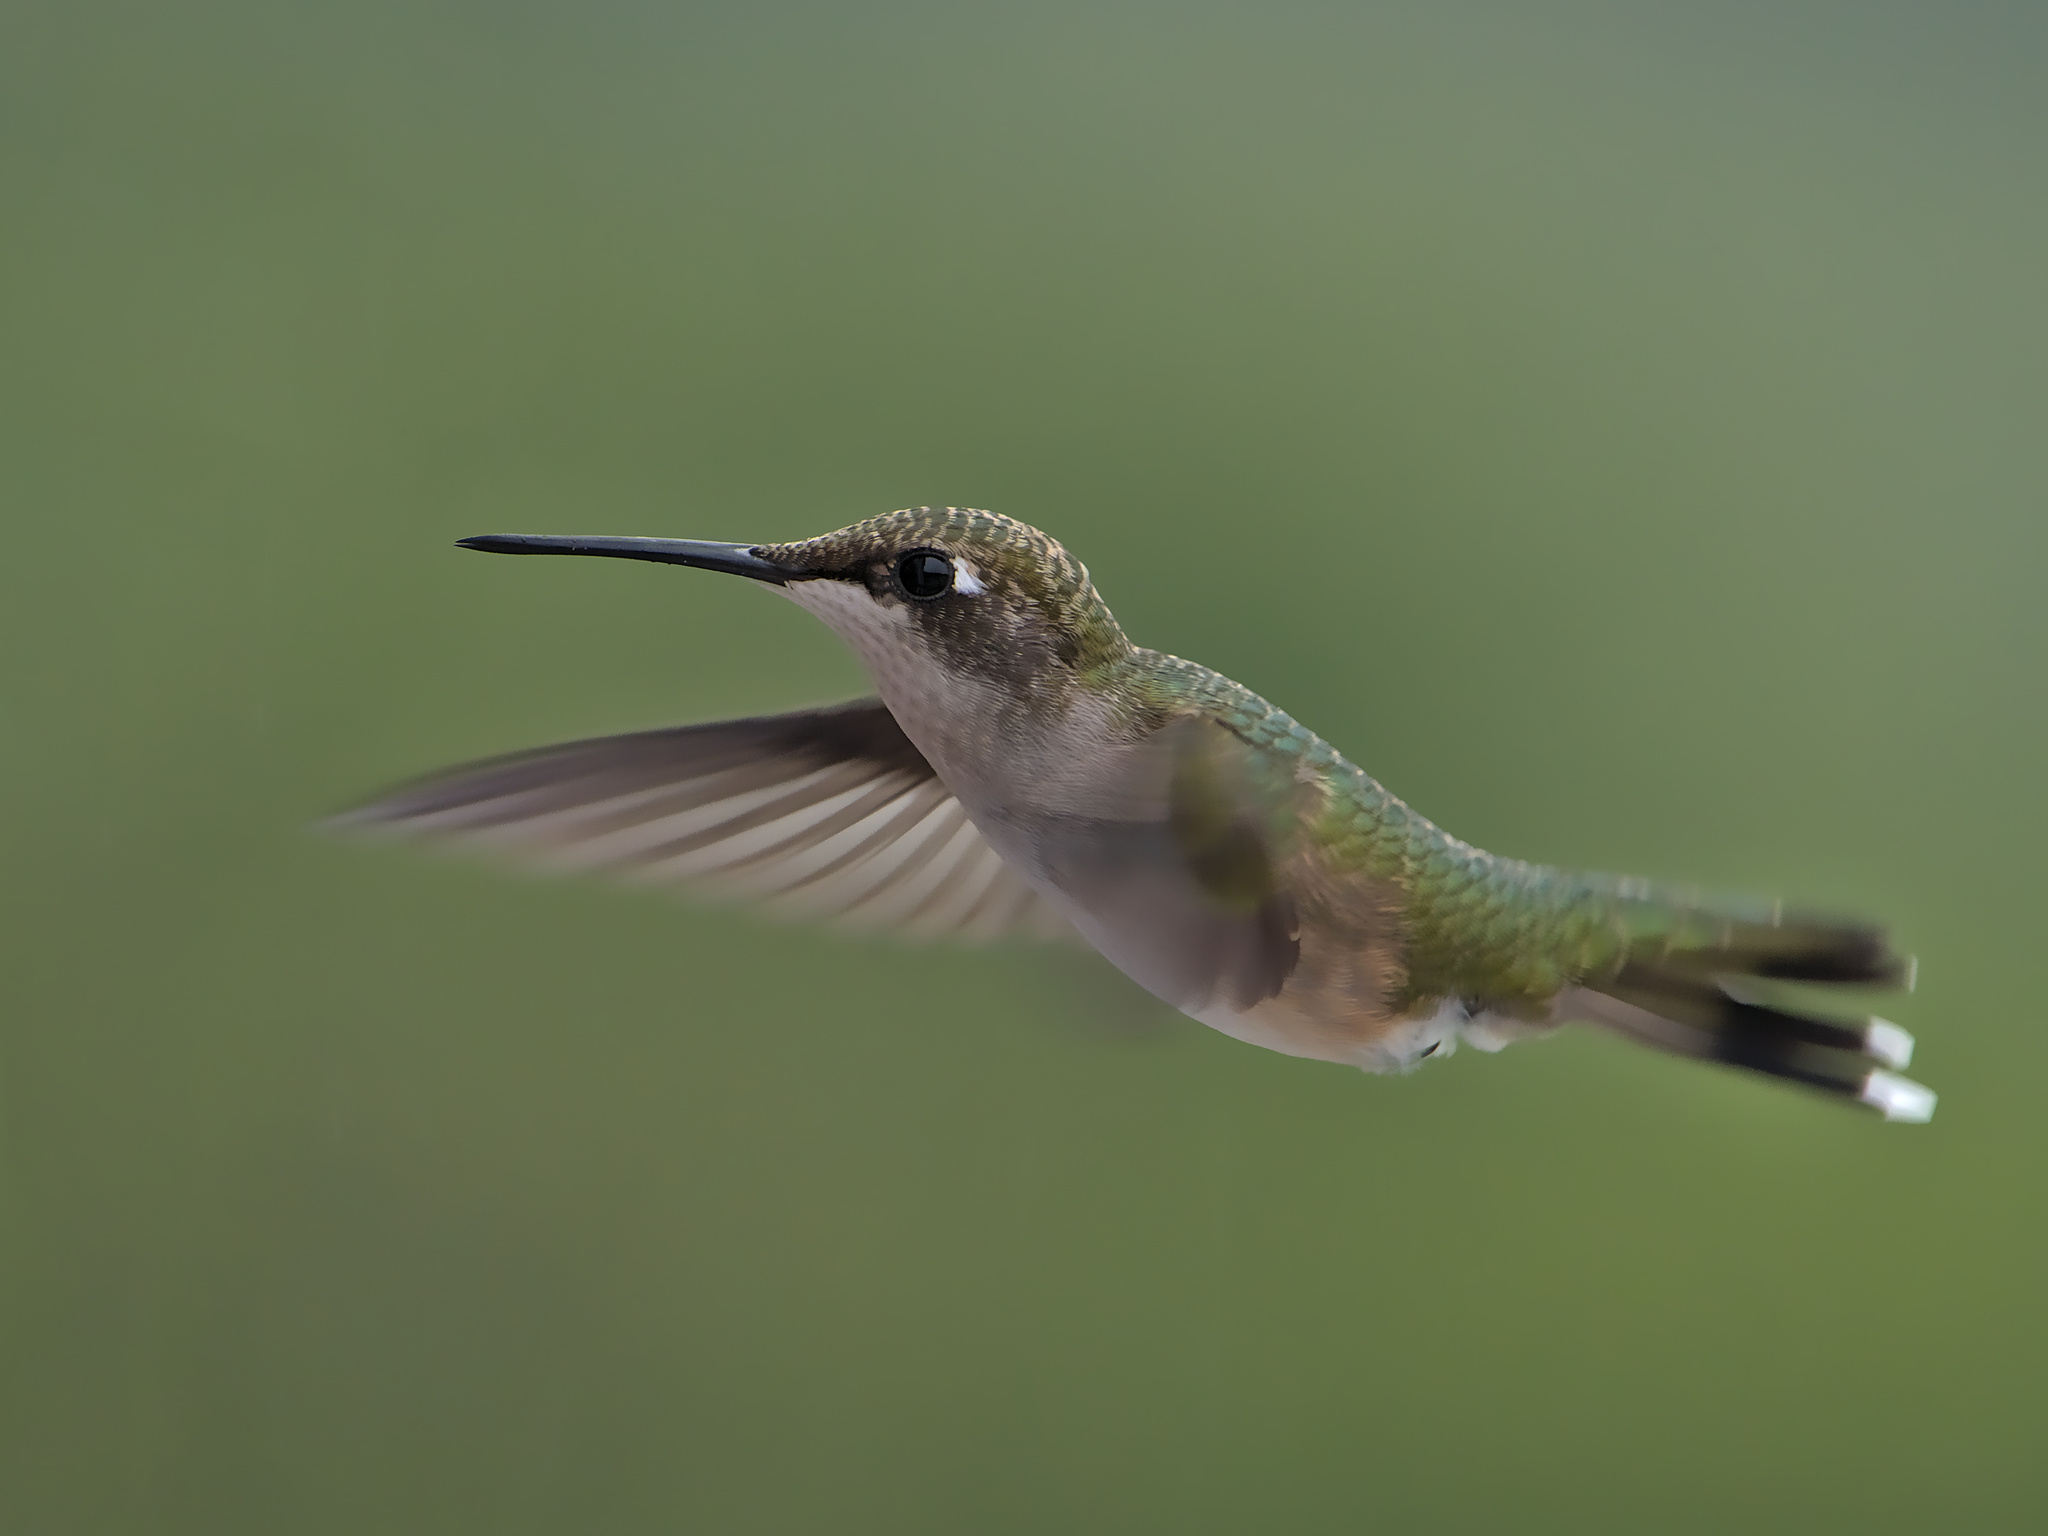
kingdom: Animalia
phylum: Chordata
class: Aves
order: Apodiformes
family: Trochilidae
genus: Archilochus
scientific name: Archilochus colubris
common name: Ruby-throated hummingbird
